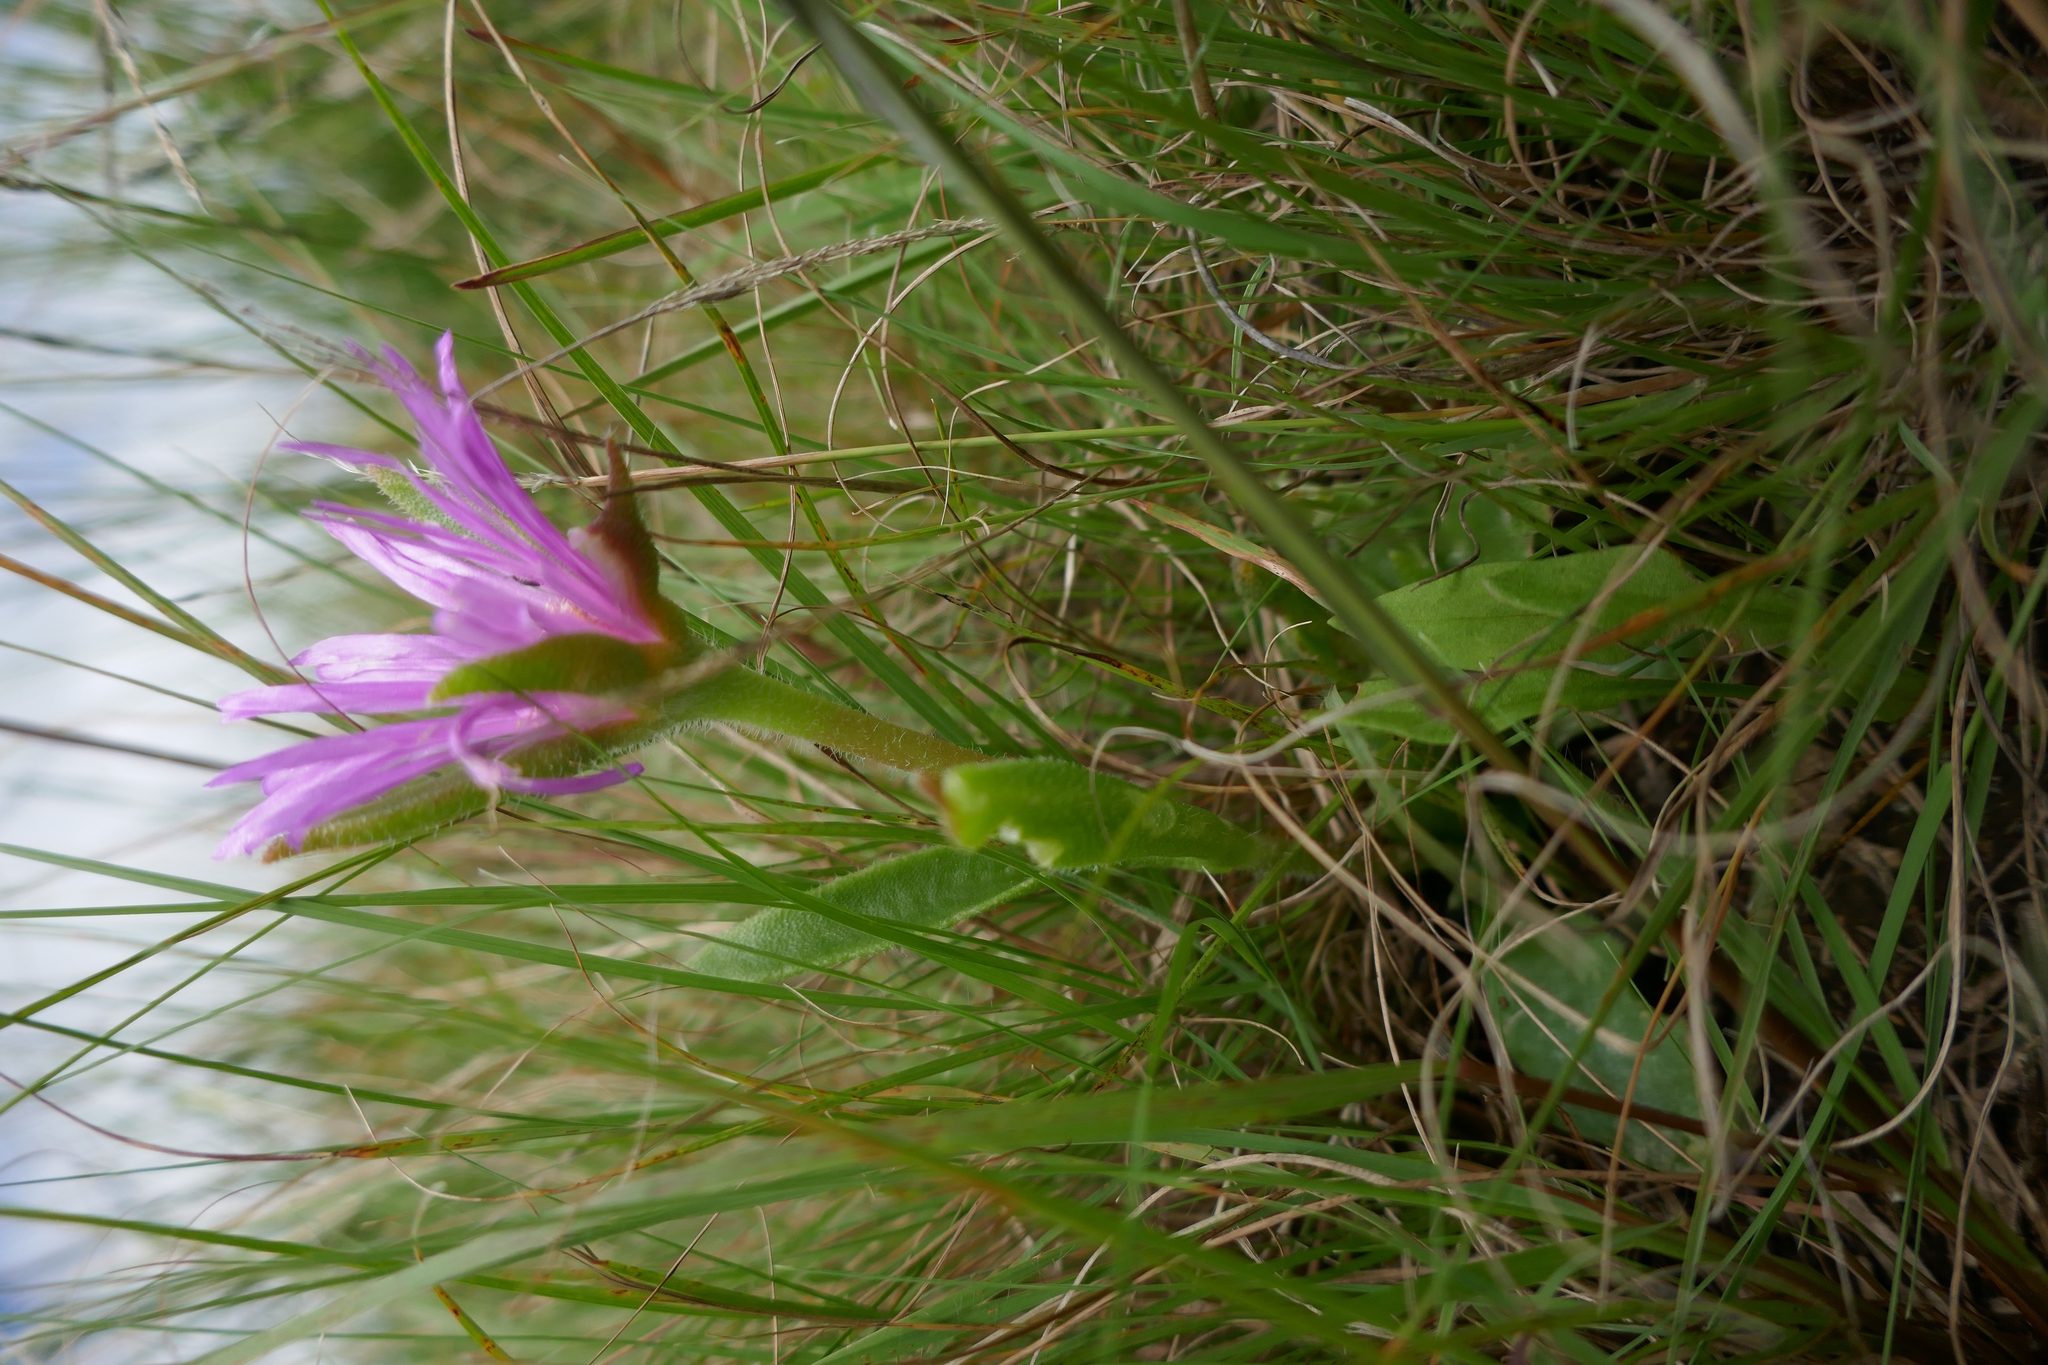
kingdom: Plantae
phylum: Tracheophyta
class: Magnoliopsida
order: Caryophyllales
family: Aizoaceae
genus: Delosperma
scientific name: Delosperma sutherlandii
